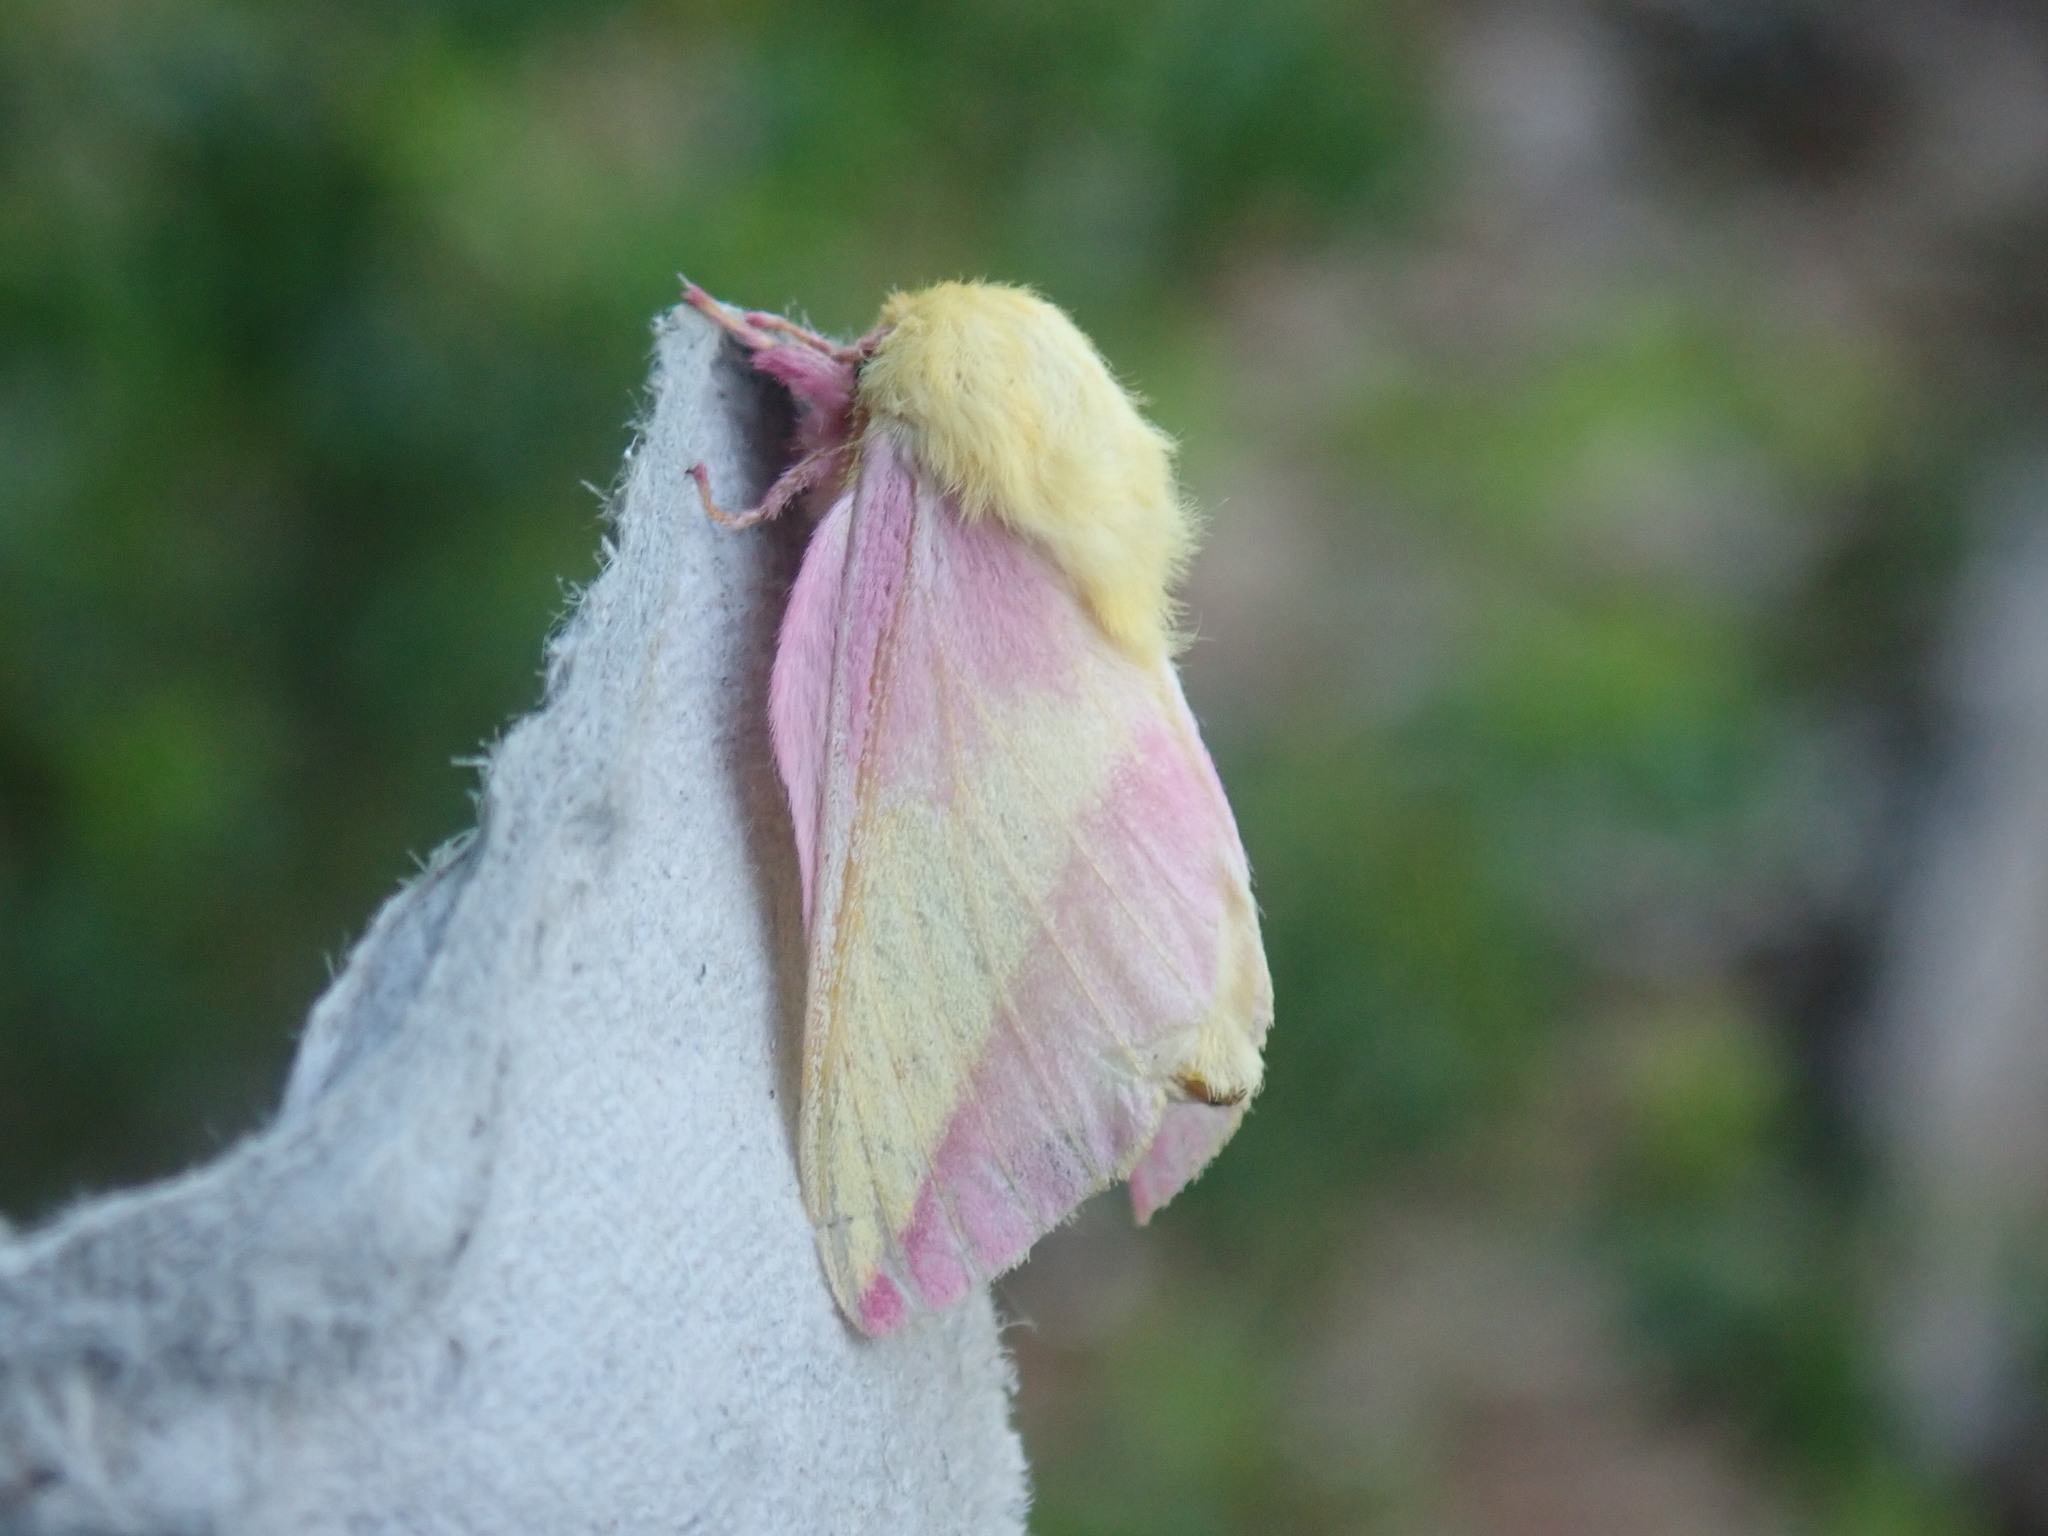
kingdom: Animalia
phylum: Arthropoda
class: Insecta
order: Lepidoptera
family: Saturniidae
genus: Dryocampa
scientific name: Dryocampa rubicunda
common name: Rosy maple moth
